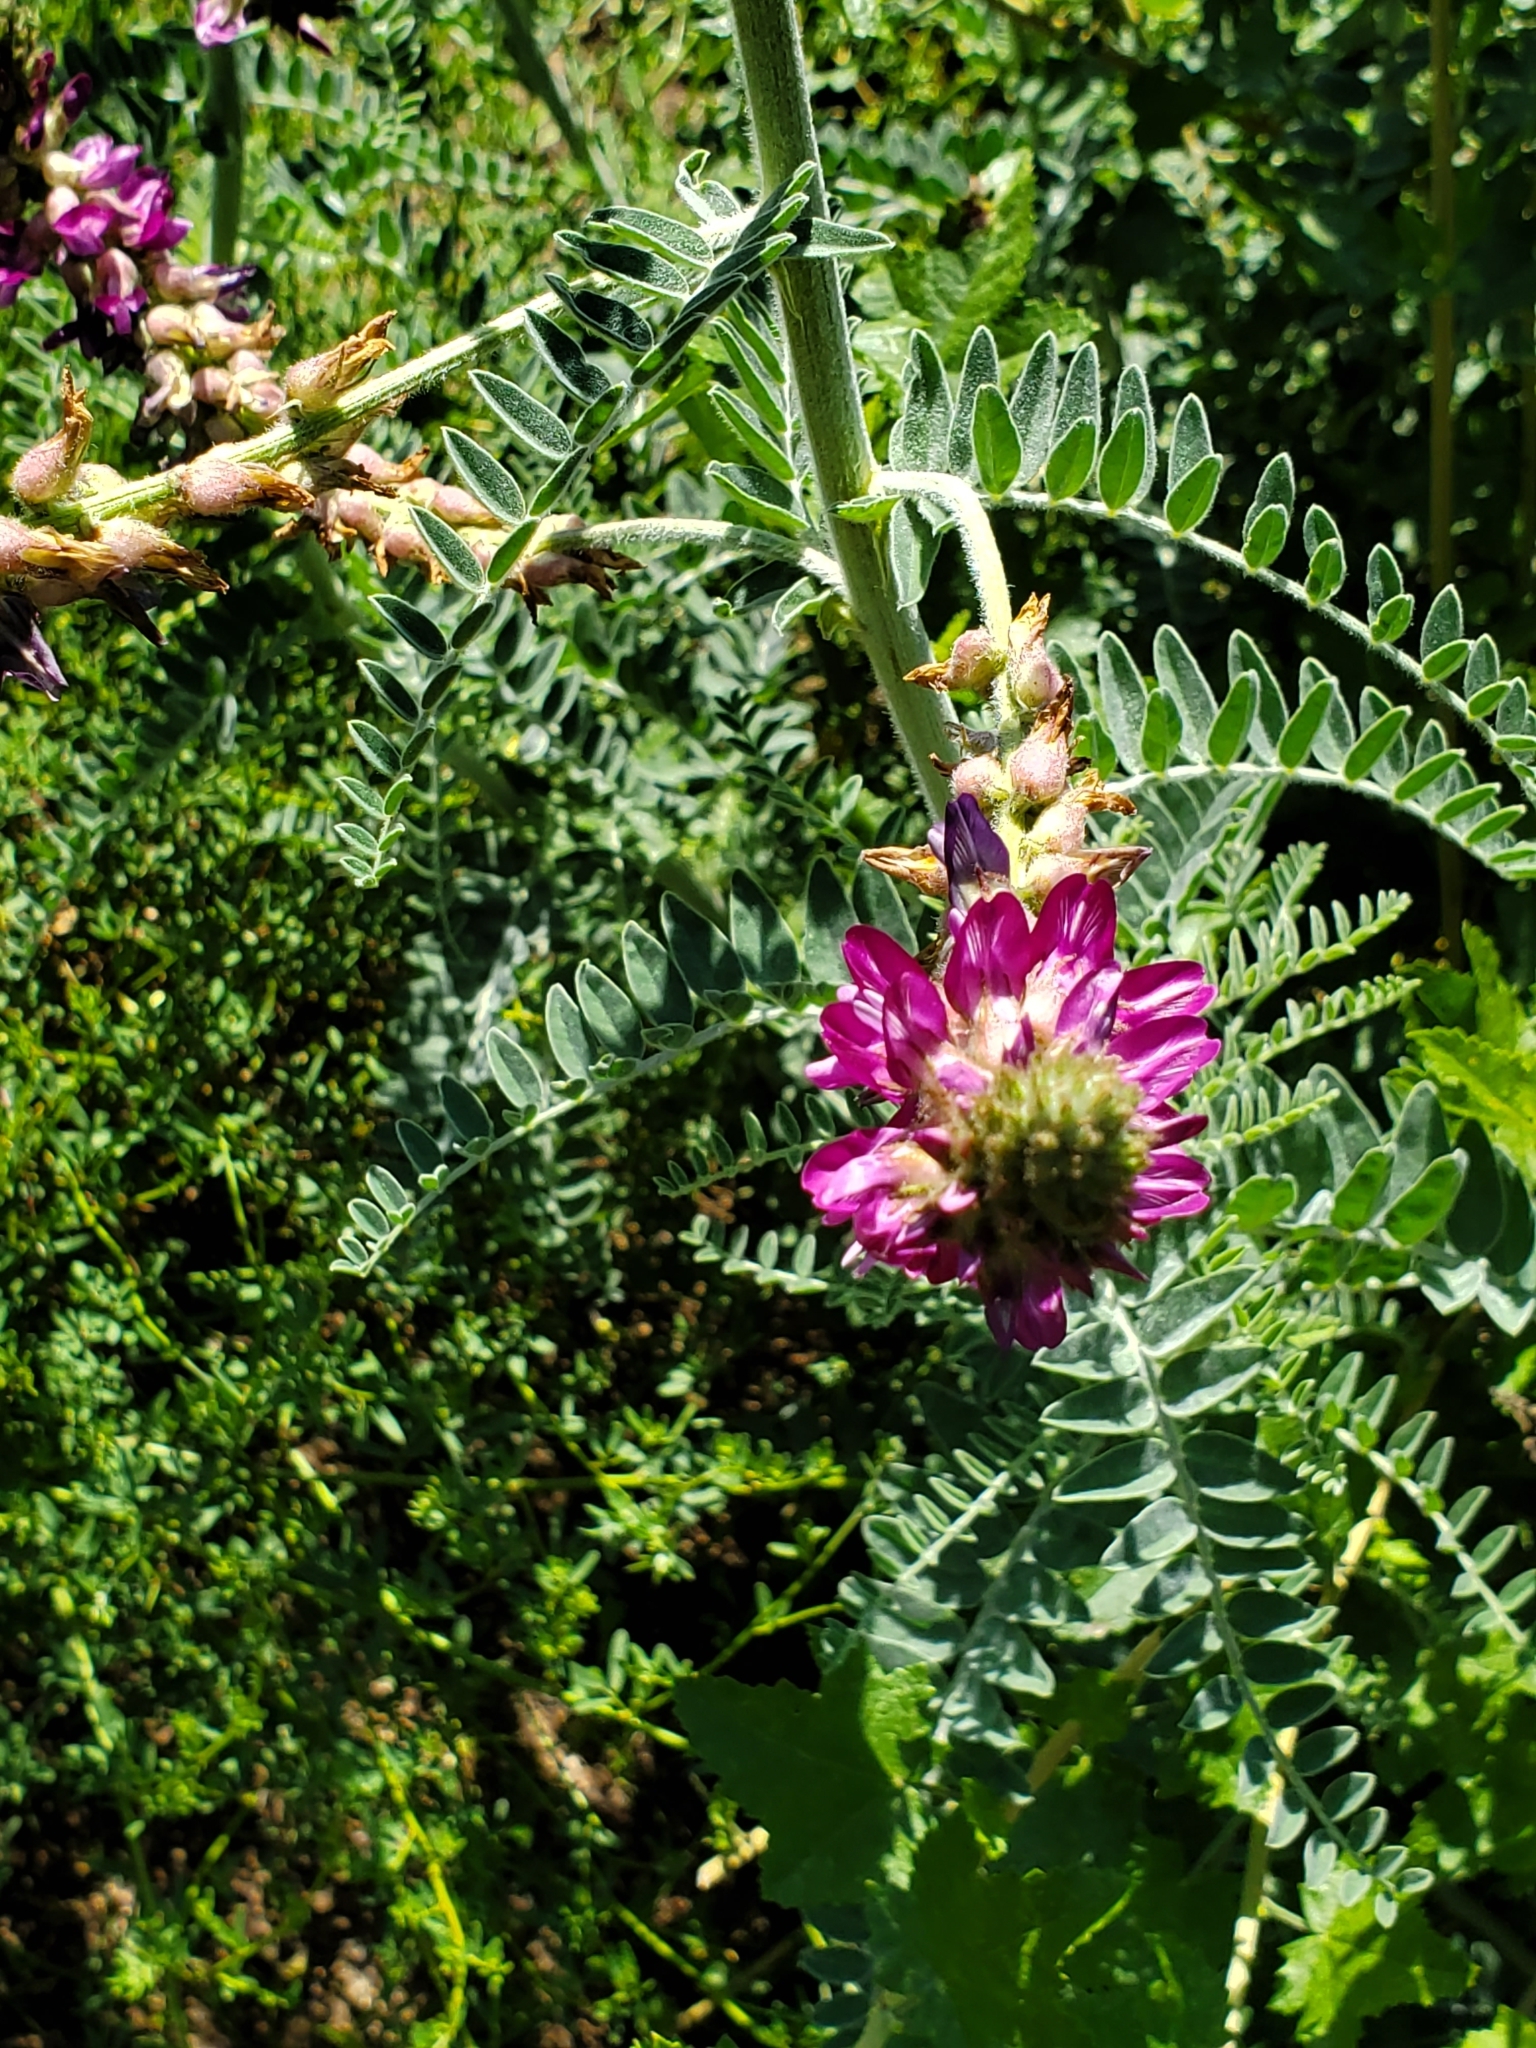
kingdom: Plantae
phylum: Tracheophyta
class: Magnoliopsida
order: Fabales
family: Fabaceae
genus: Astragalus
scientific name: Astragalus brauntonii
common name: Braunton's milk-vetch
